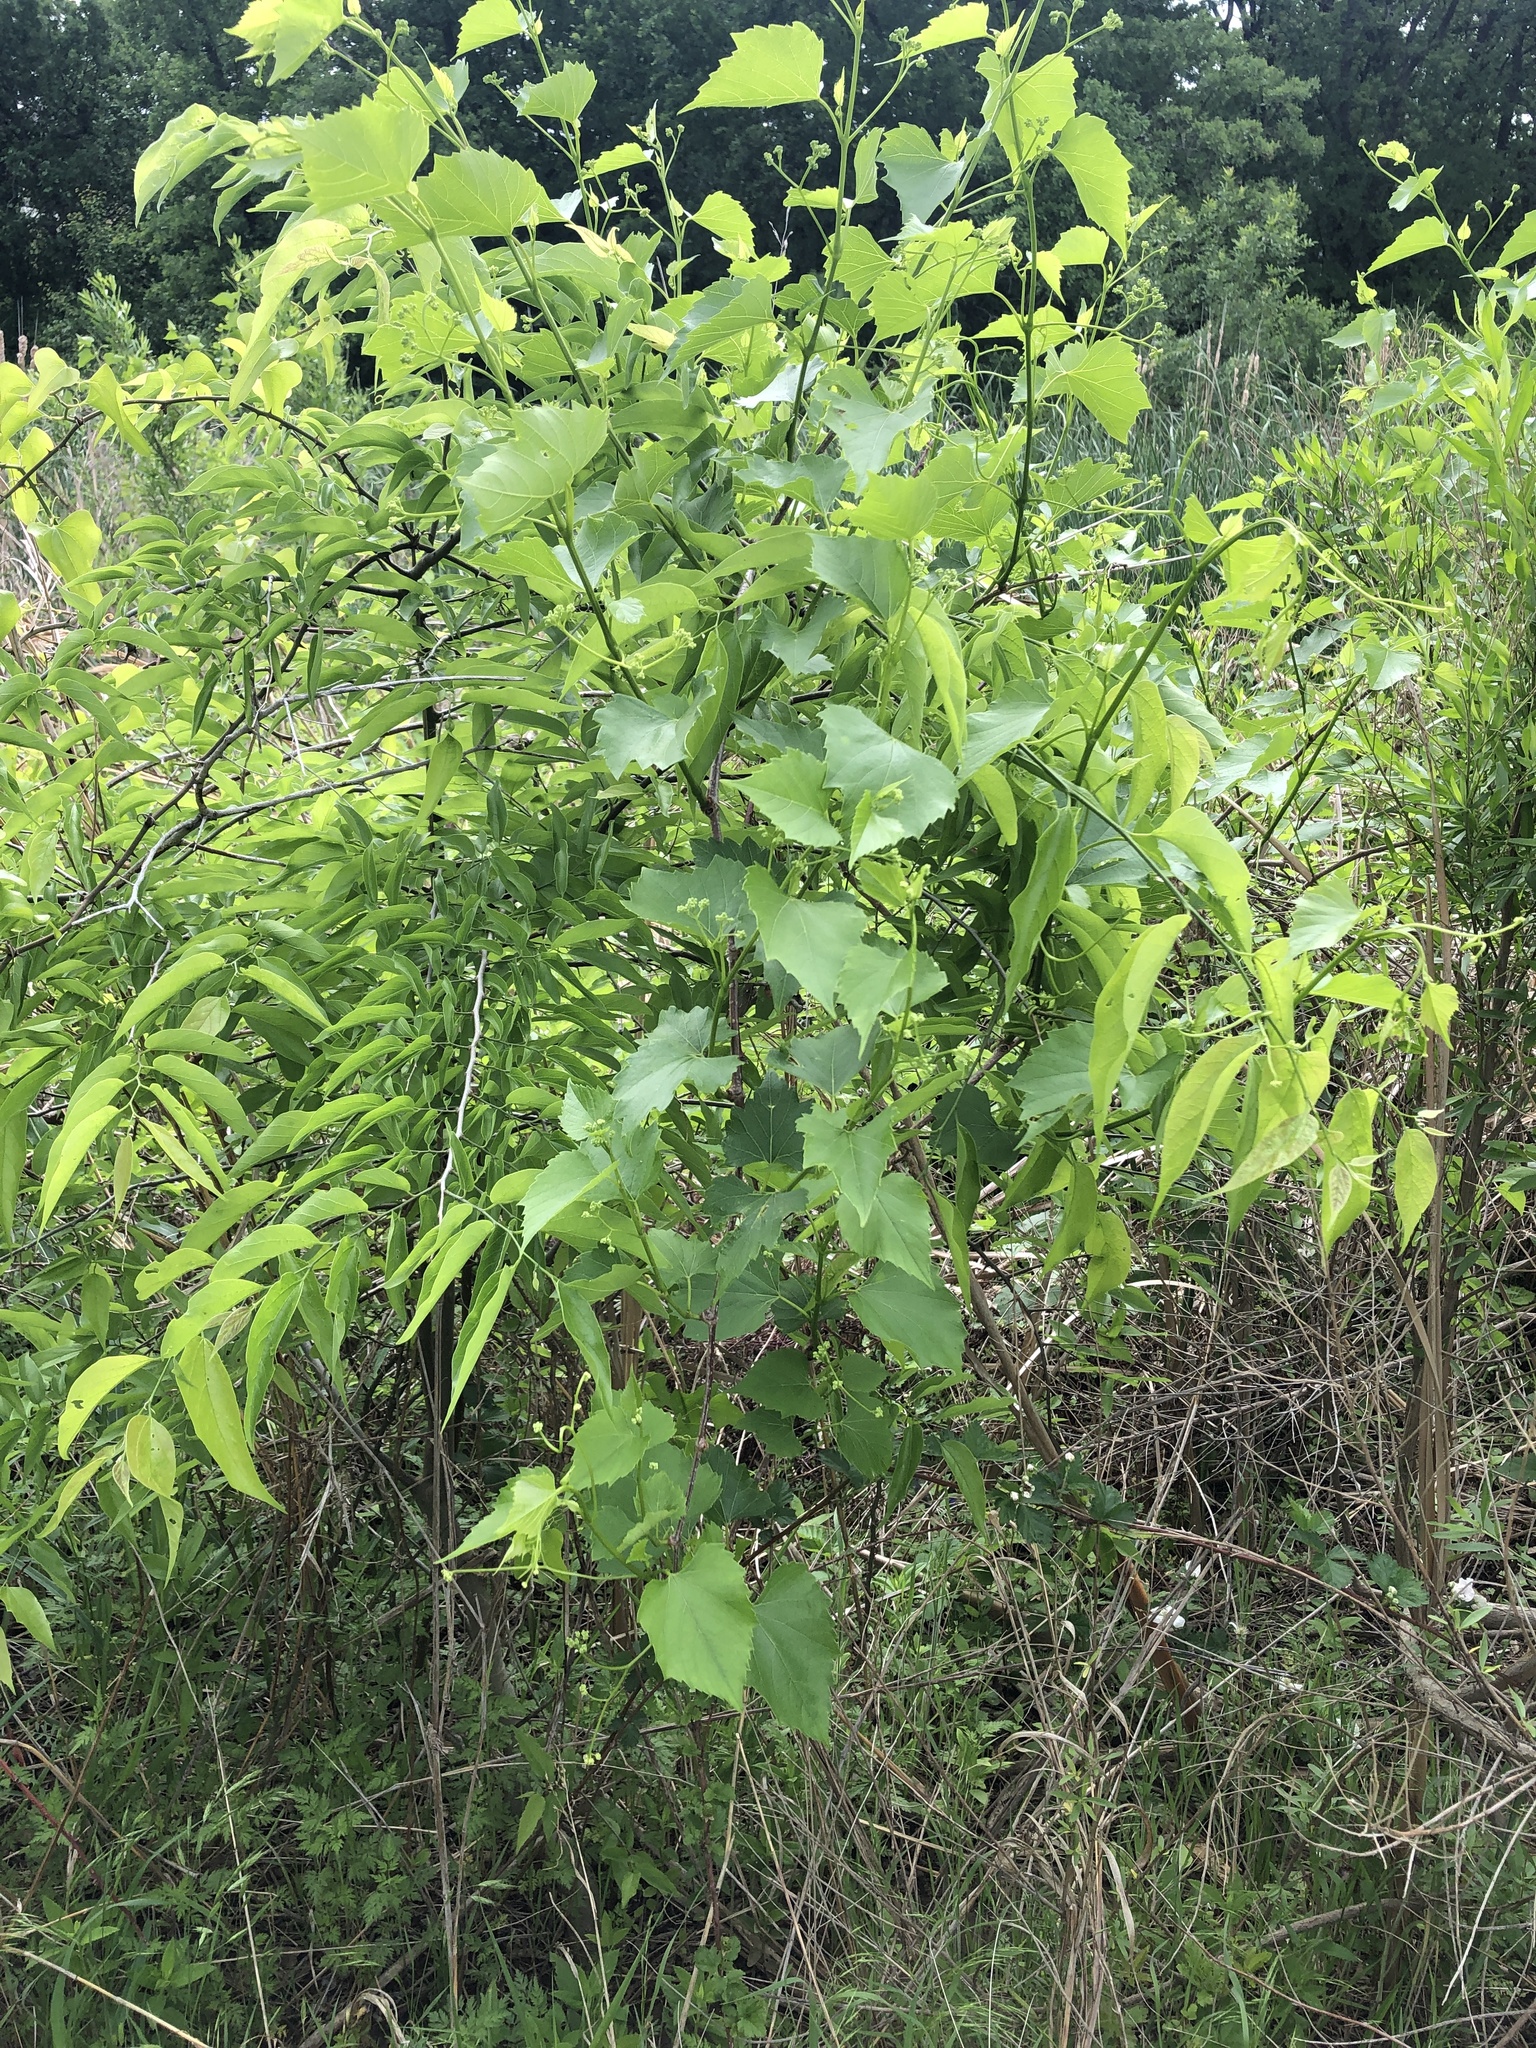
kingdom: Plantae
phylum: Tracheophyta
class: Magnoliopsida
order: Vitales
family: Vitaceae
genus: Ampelopsis
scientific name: Ampelopsis cordata
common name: Heart-leaf ampelopsis
